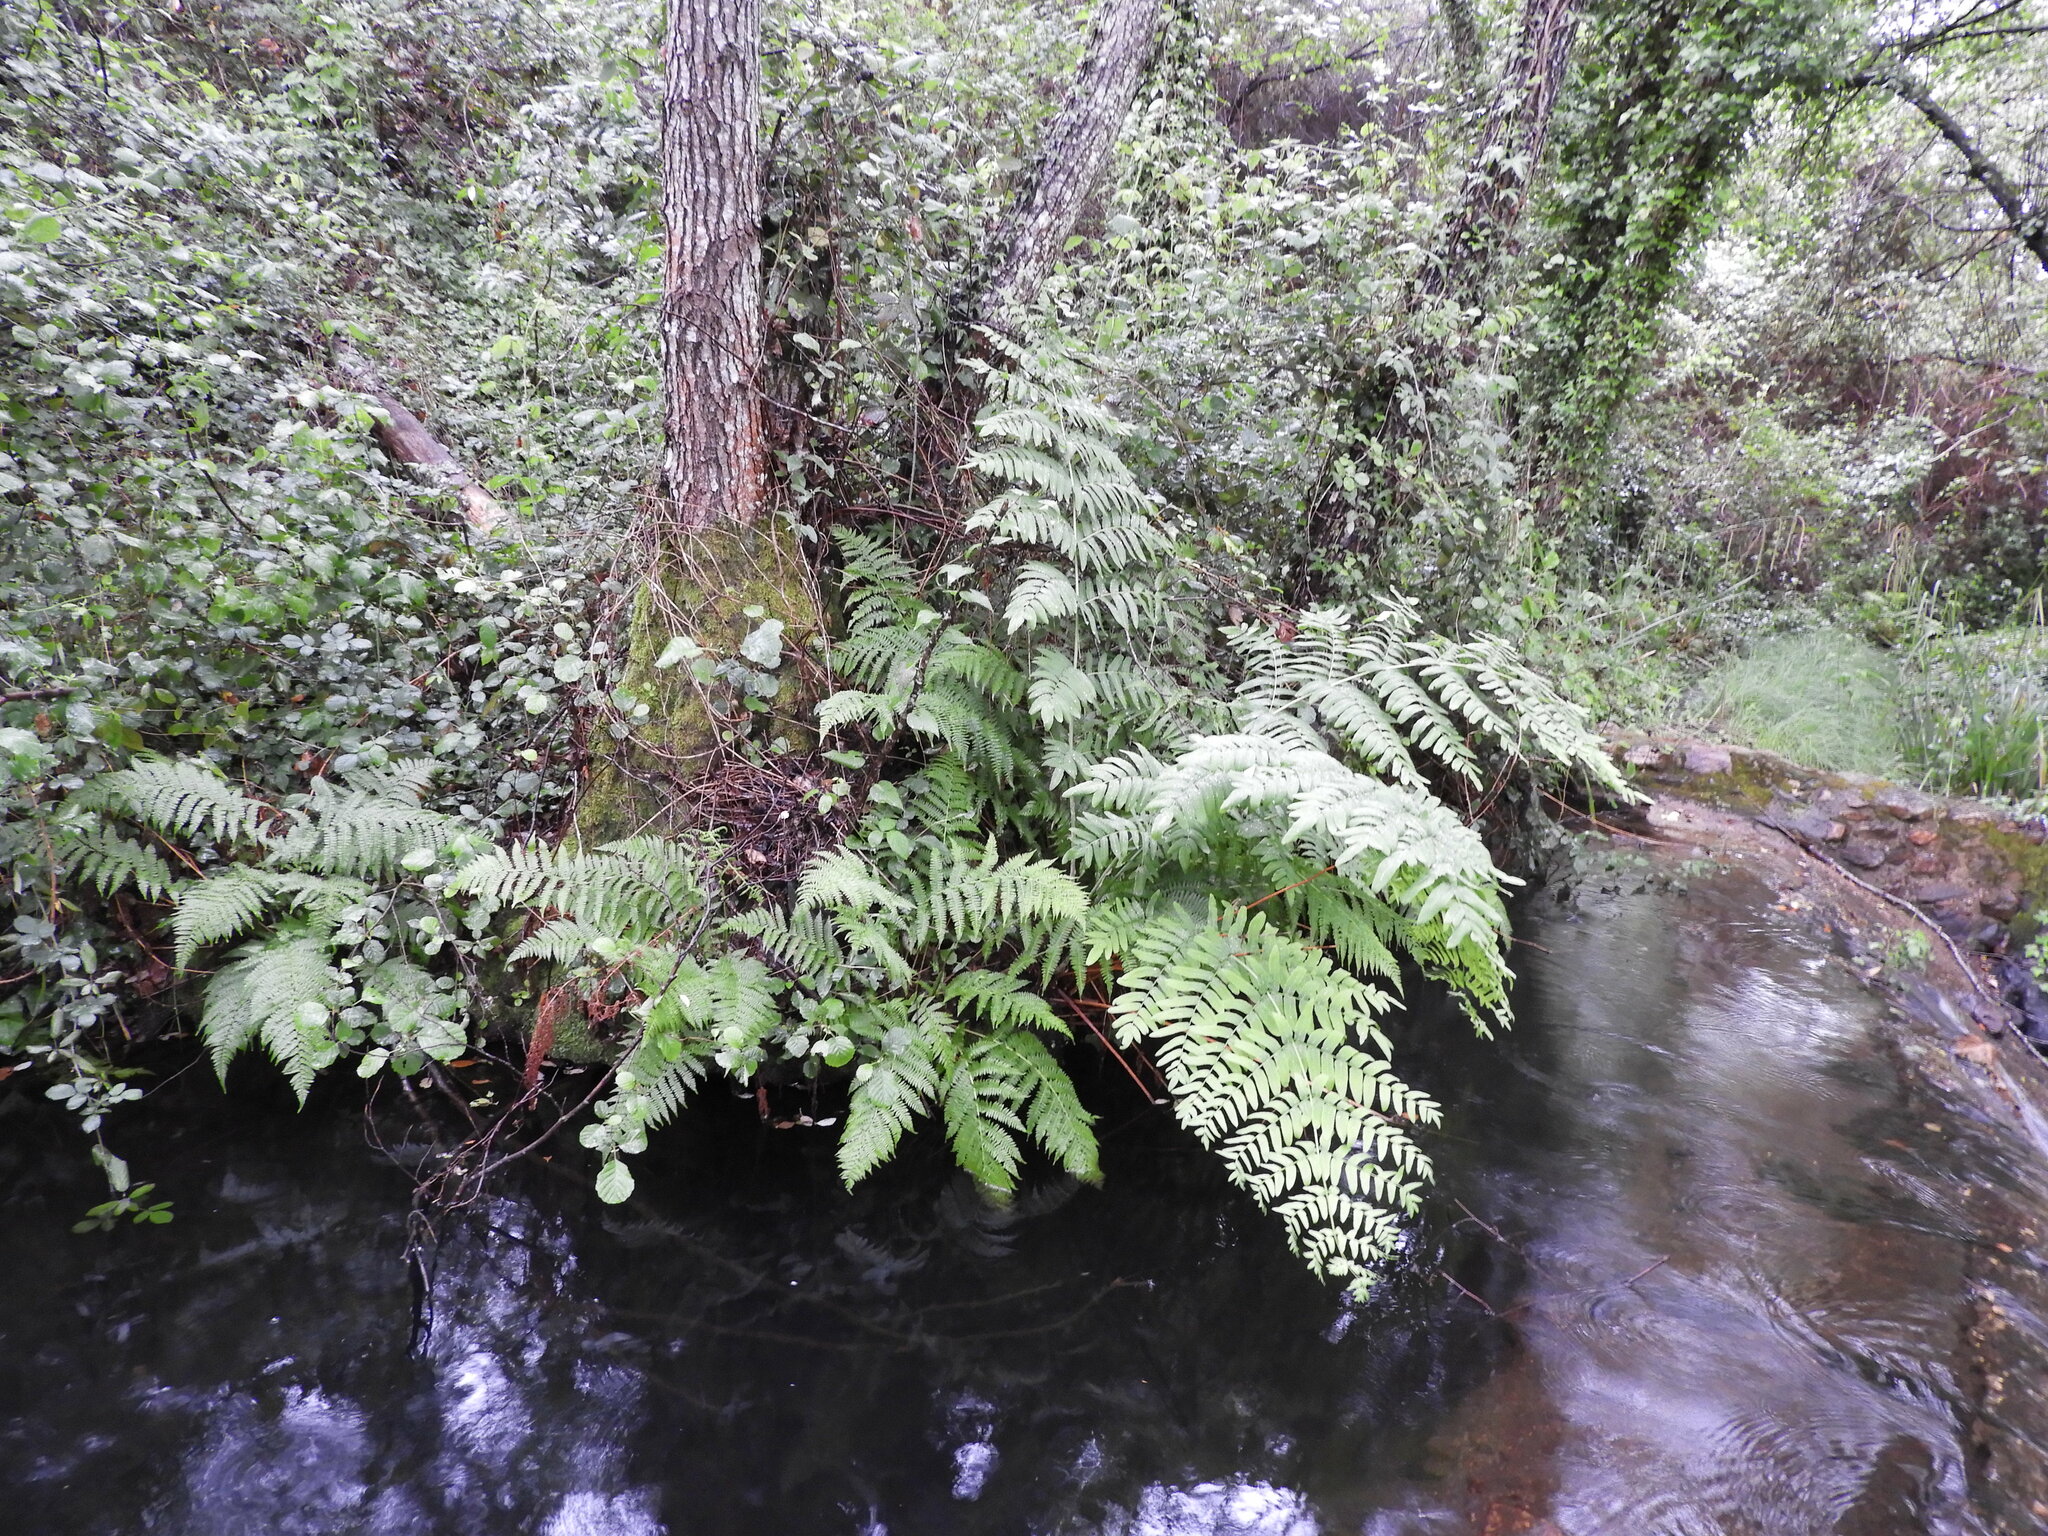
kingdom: Plantae
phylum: Tracheophyta
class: Polypodiopsida
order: Osmundales
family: Osmundaceae
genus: Osmunda
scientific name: Osmunda regalis
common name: Royal fern
